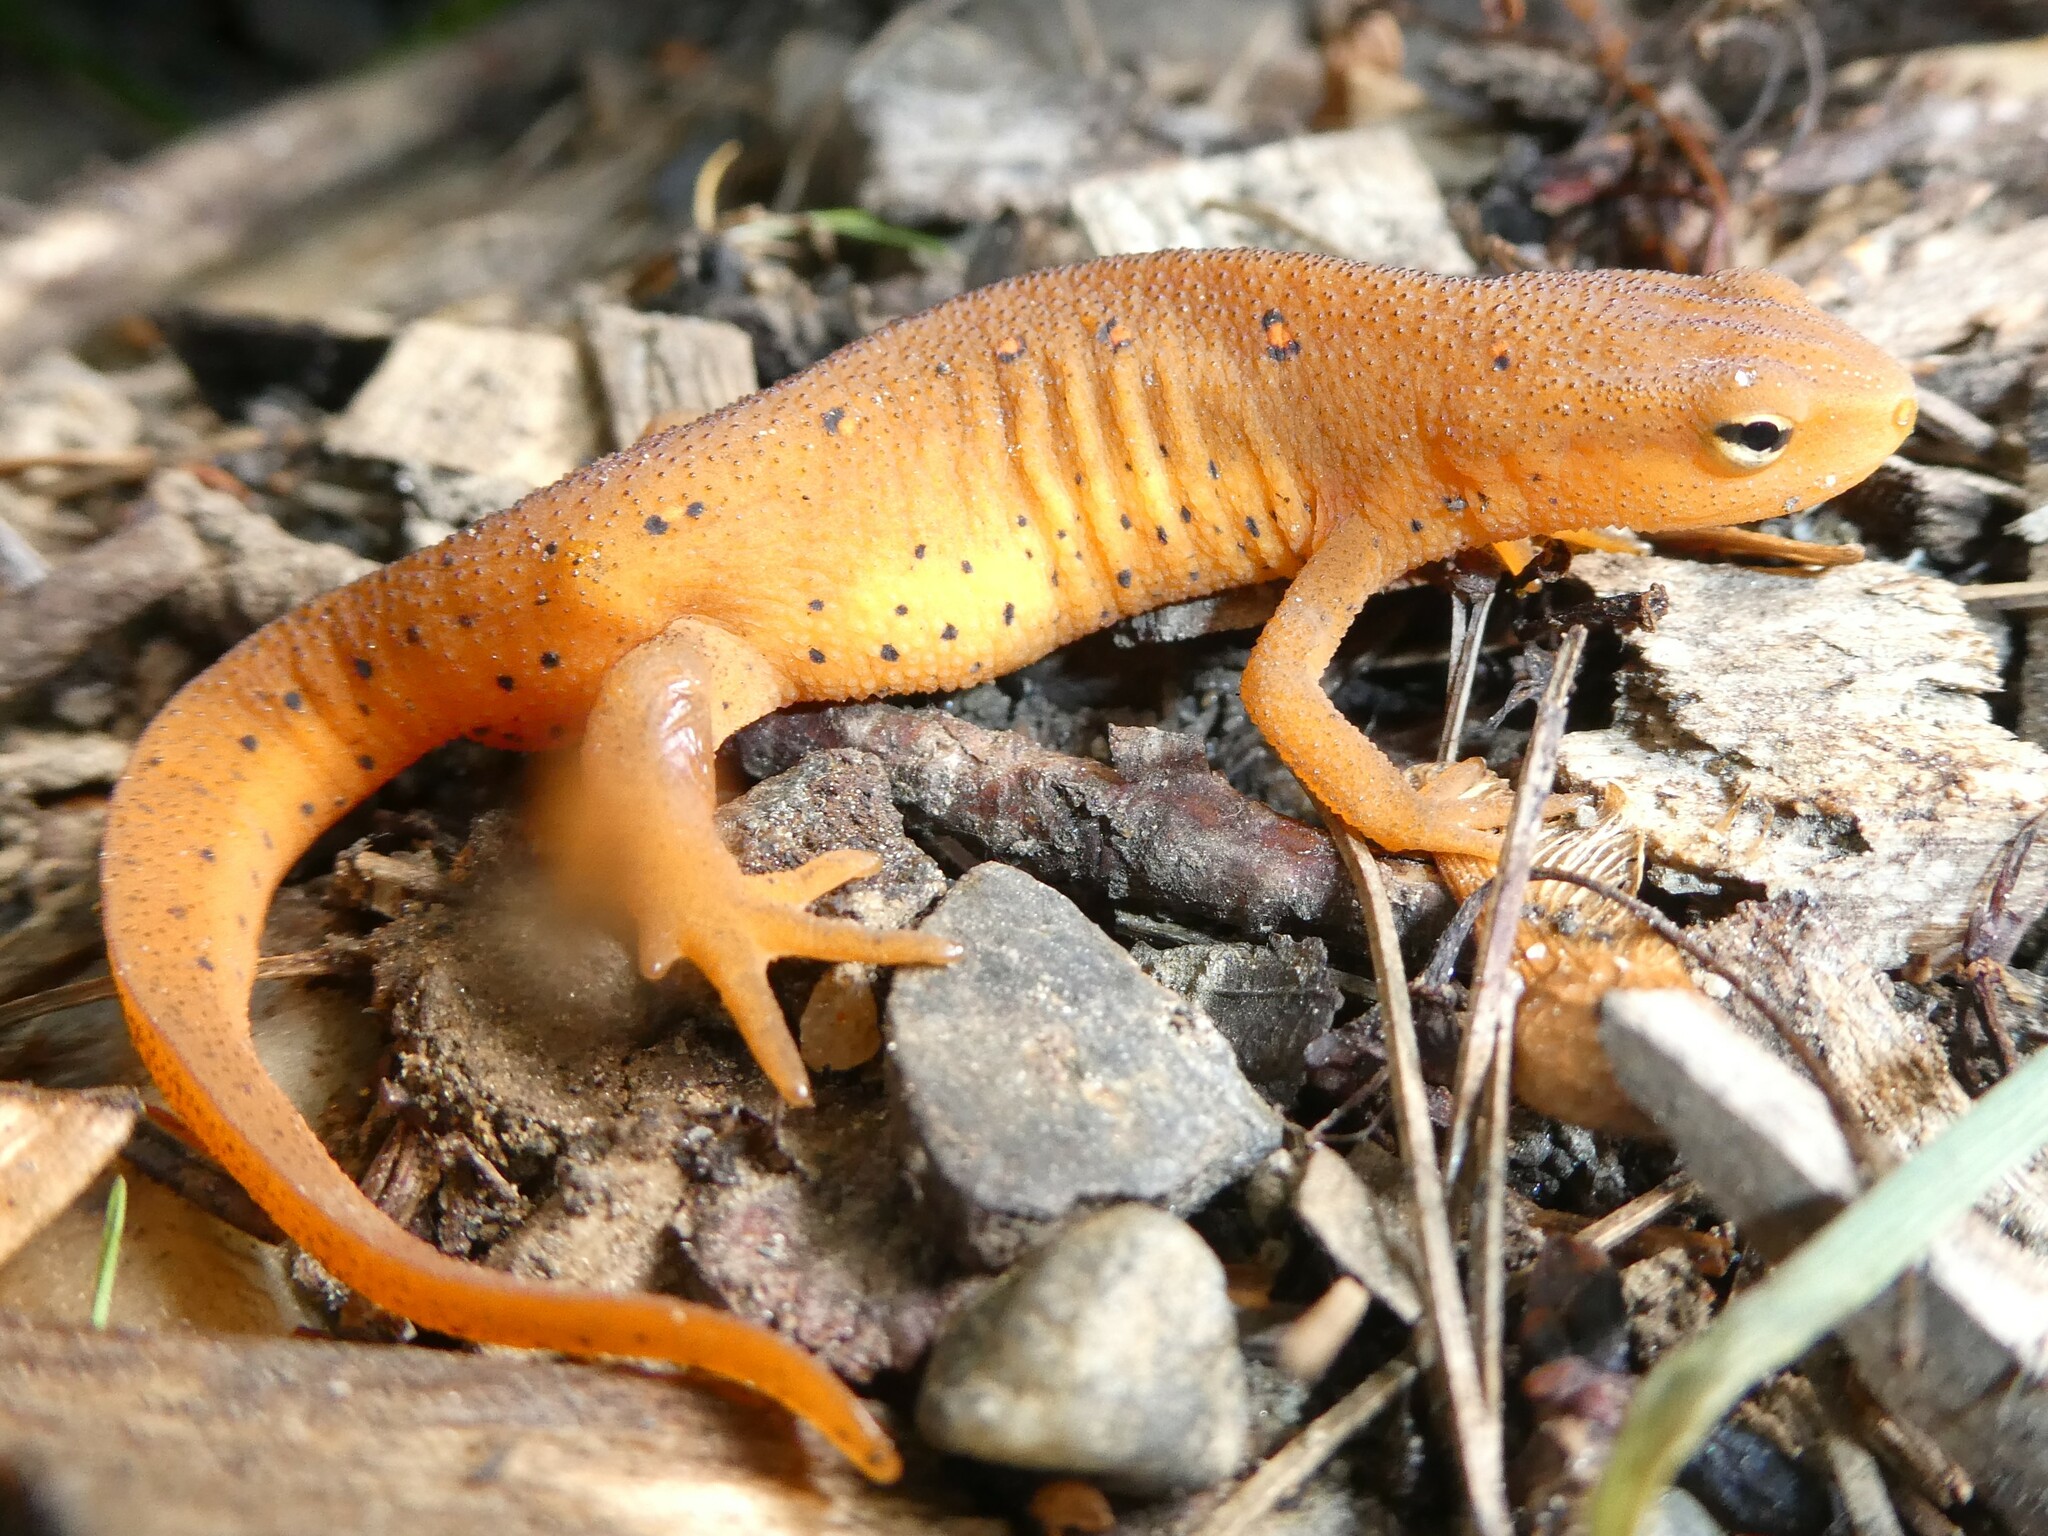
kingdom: Animalia
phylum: Chordata
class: Amphibia
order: Caudata
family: Salamandridae
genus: Notophthalmus
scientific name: Notophthalmus viridescens
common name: Eastern newt
